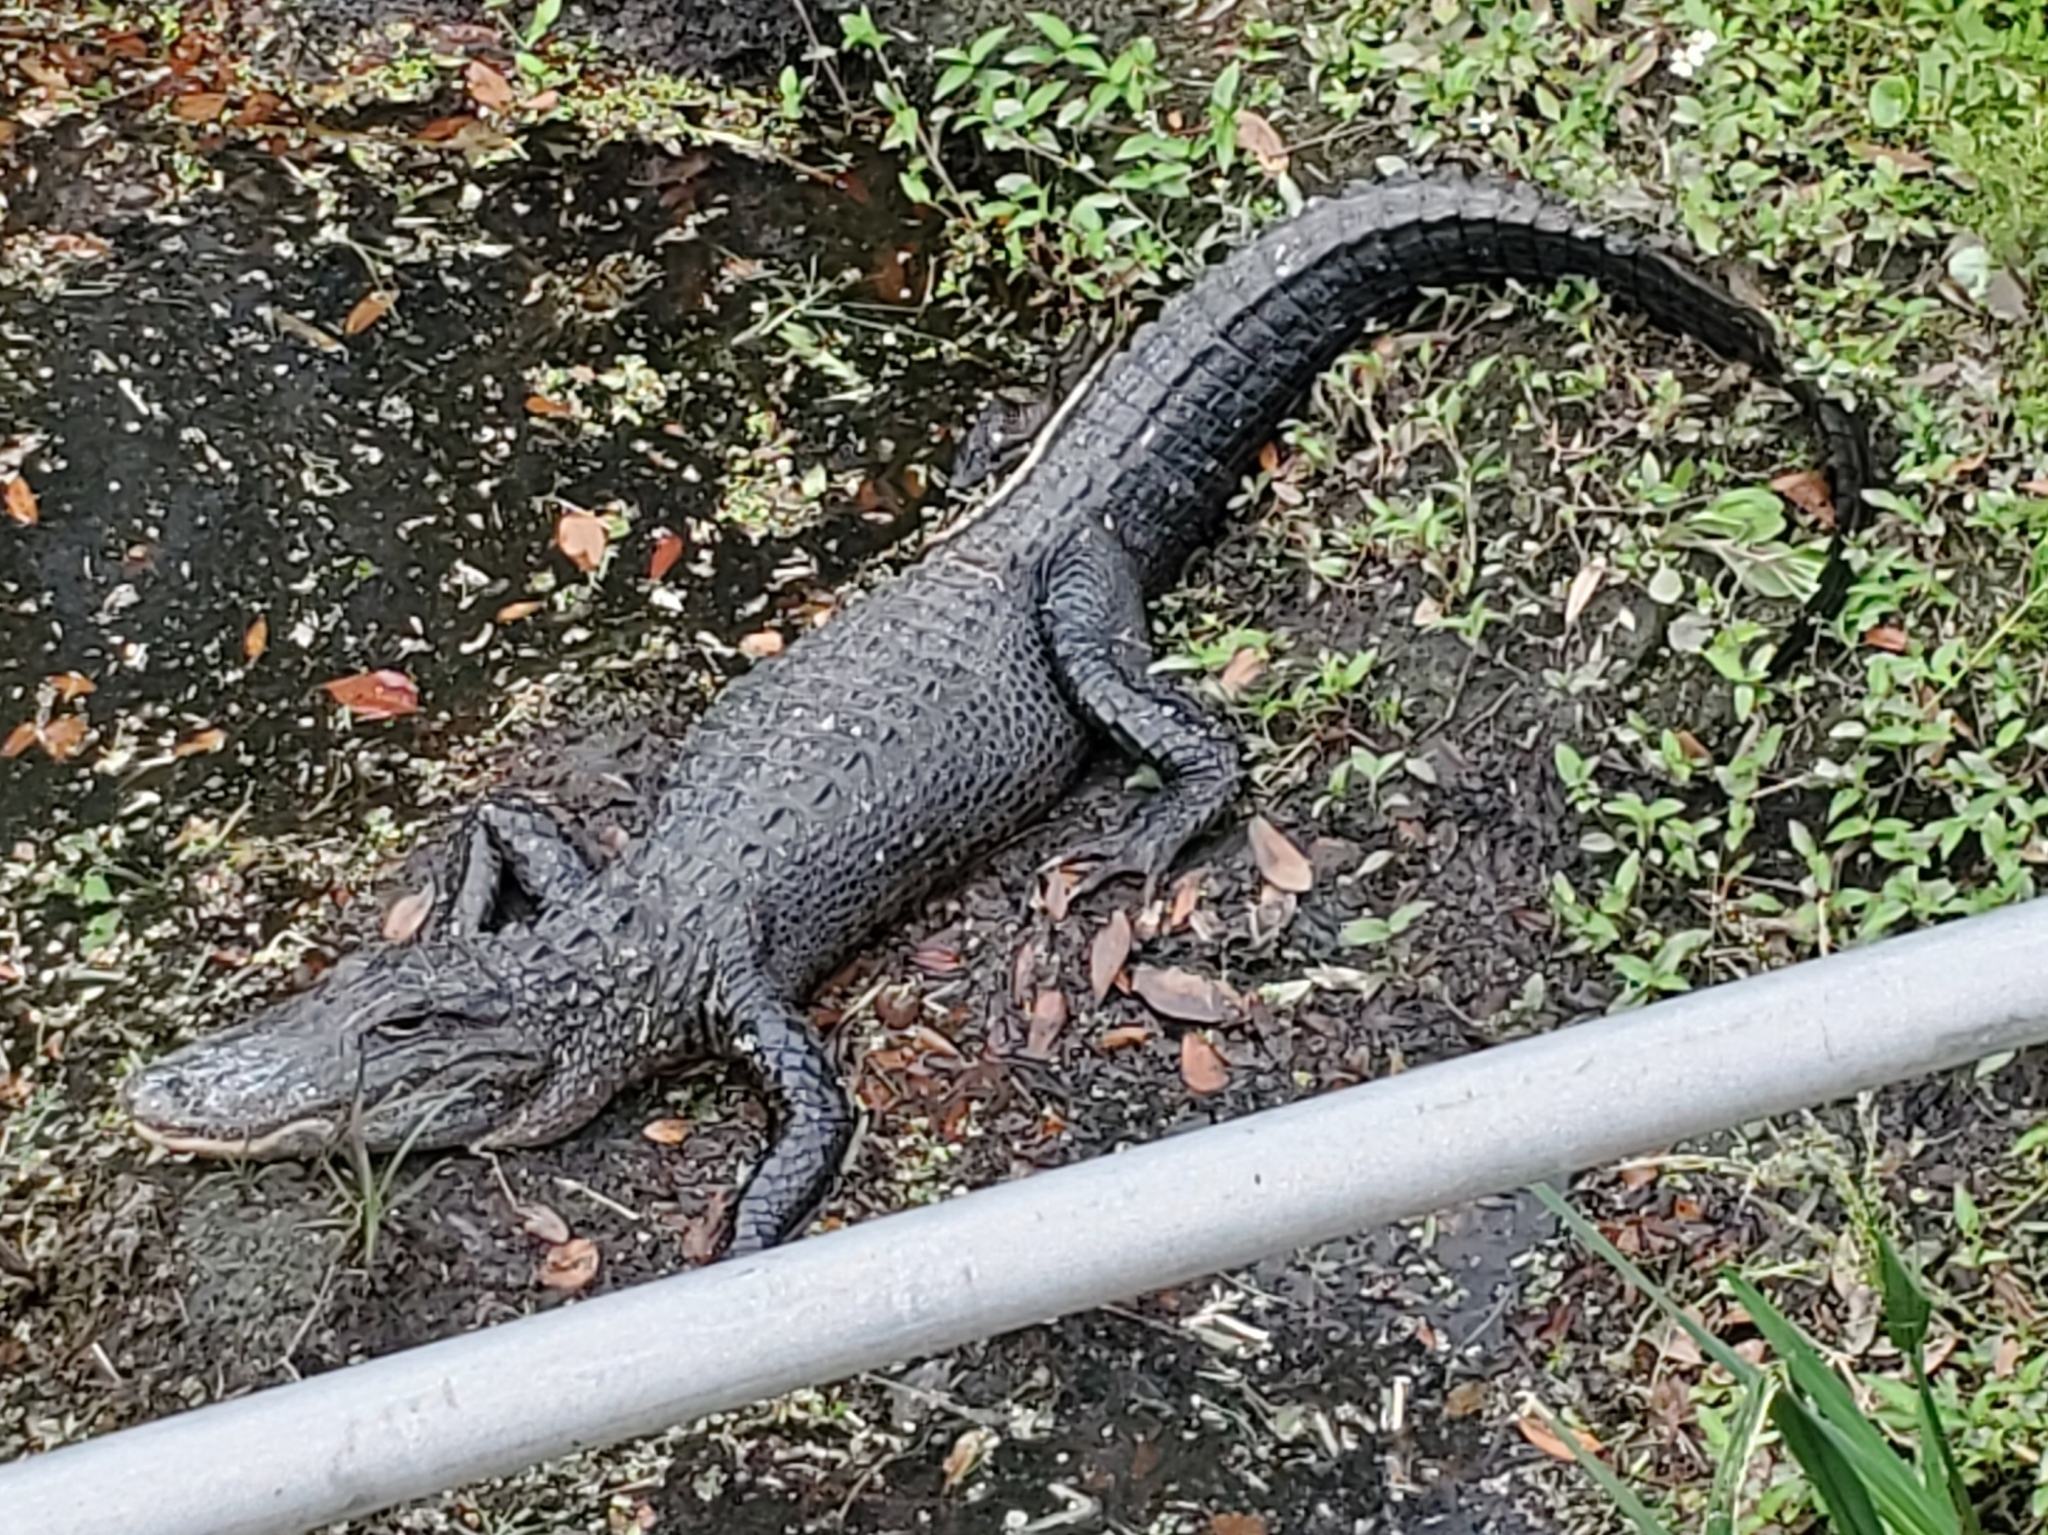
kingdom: Animalia
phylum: Chordata
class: Crocodylia
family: Alligatoridae
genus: Alligator
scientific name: Alligator mississippiensis
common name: American alligator
